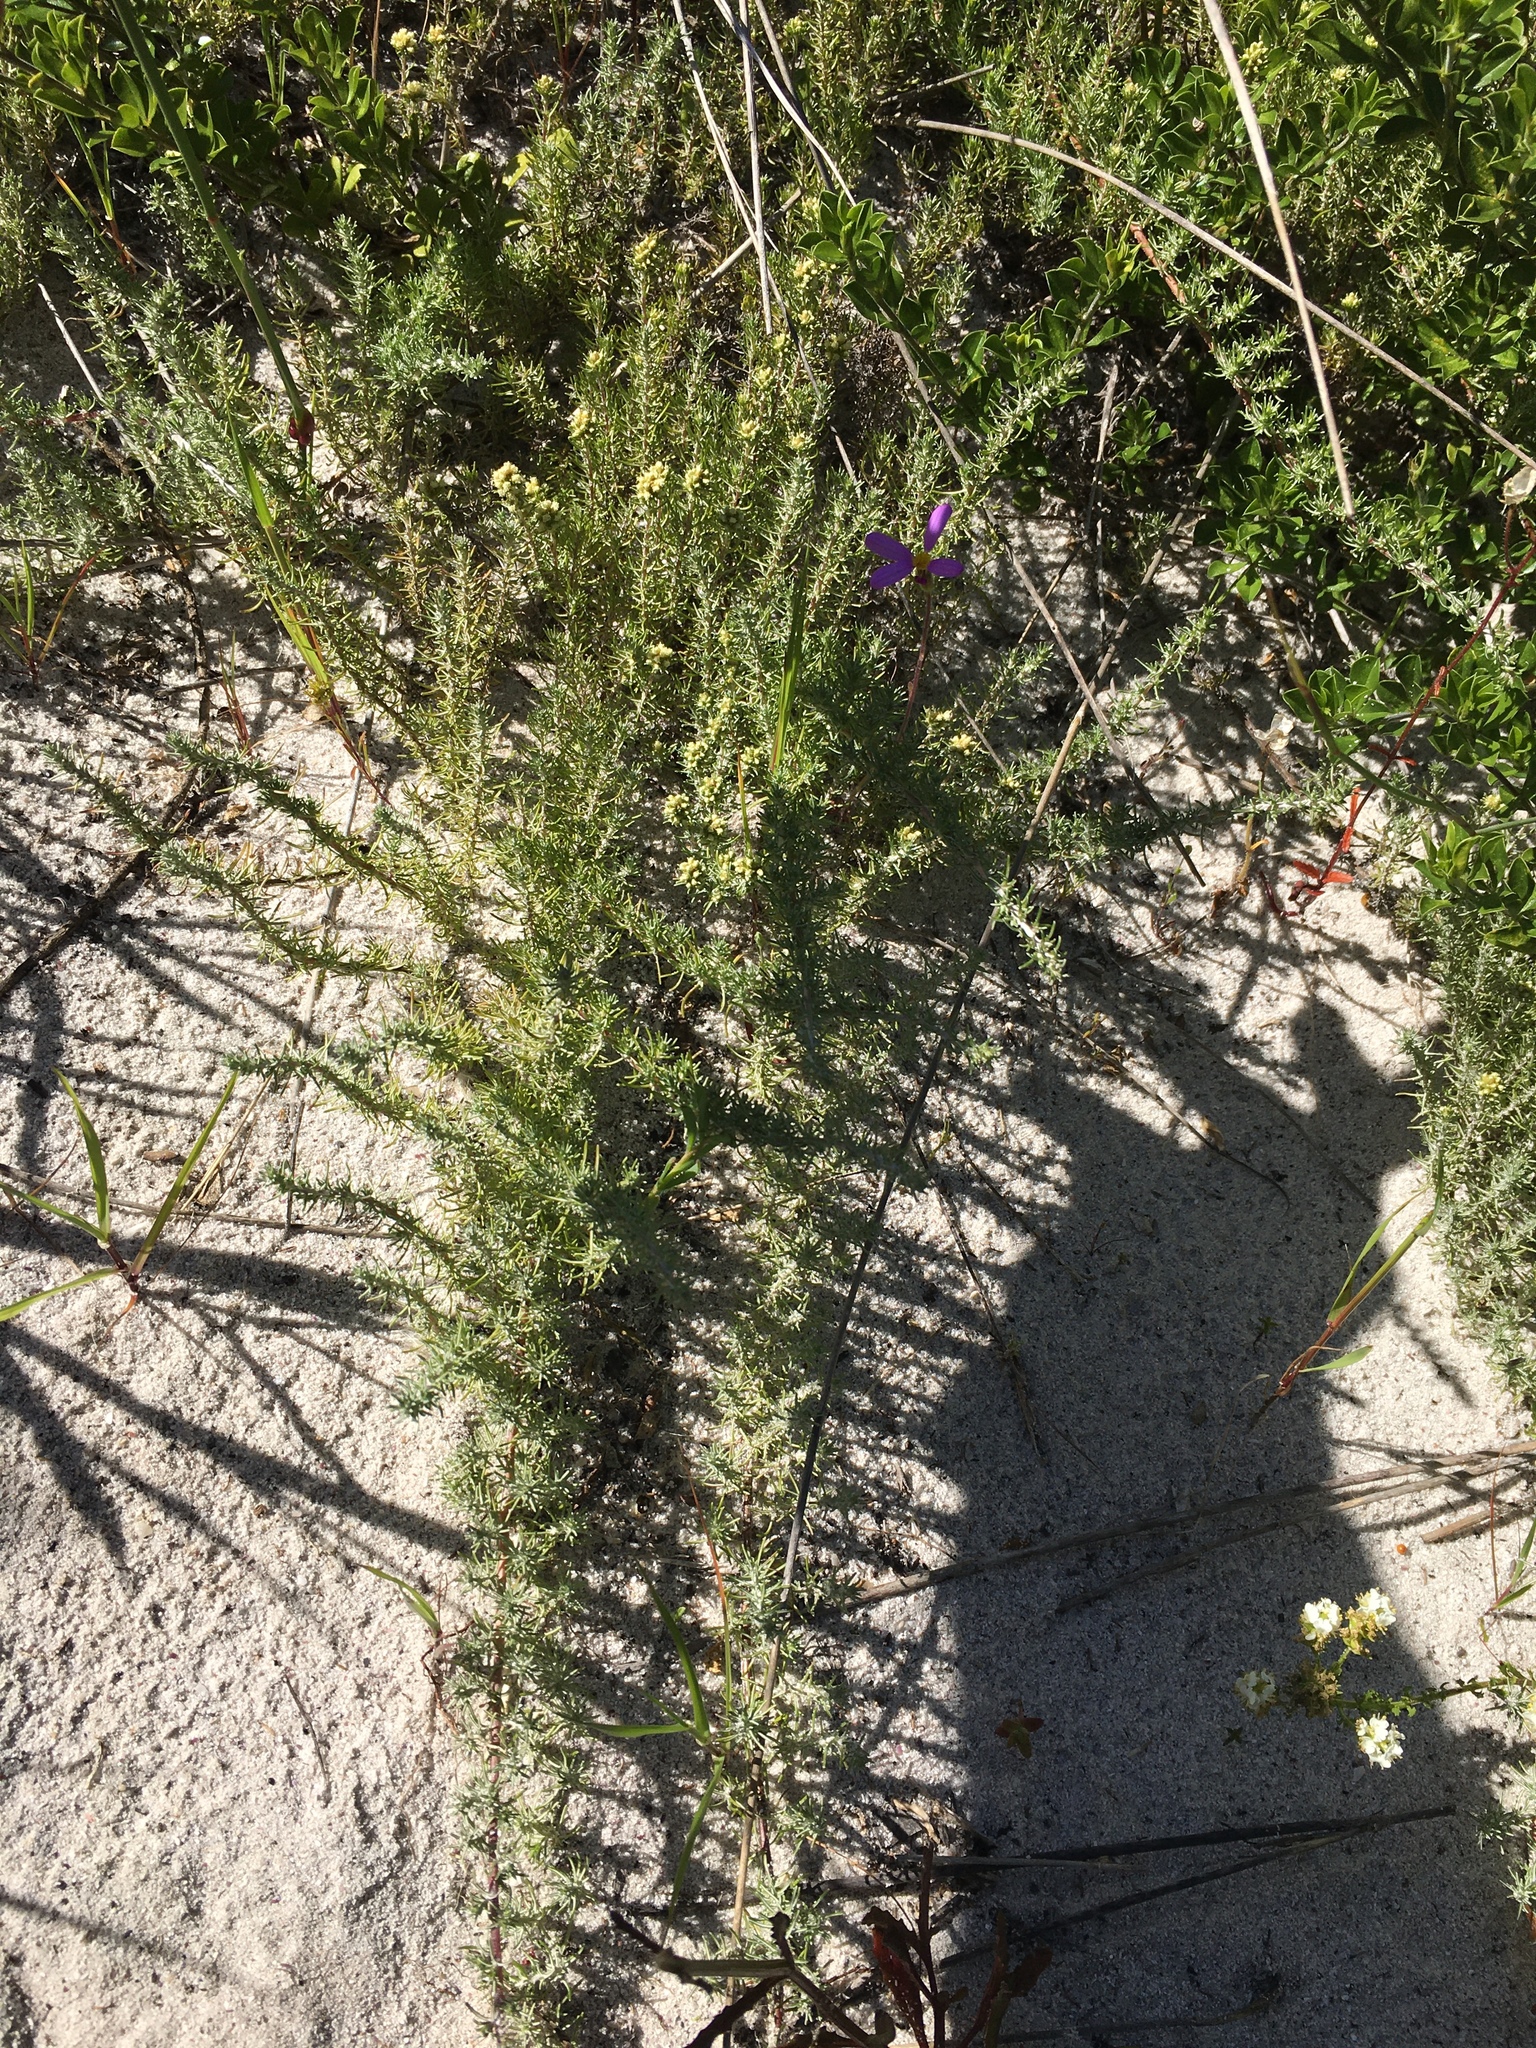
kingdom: Plantae
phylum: Tracheophyta
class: Magnoliopsida
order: Asterales
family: Asteraceae
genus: Ifloga
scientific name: Ifloga repens
